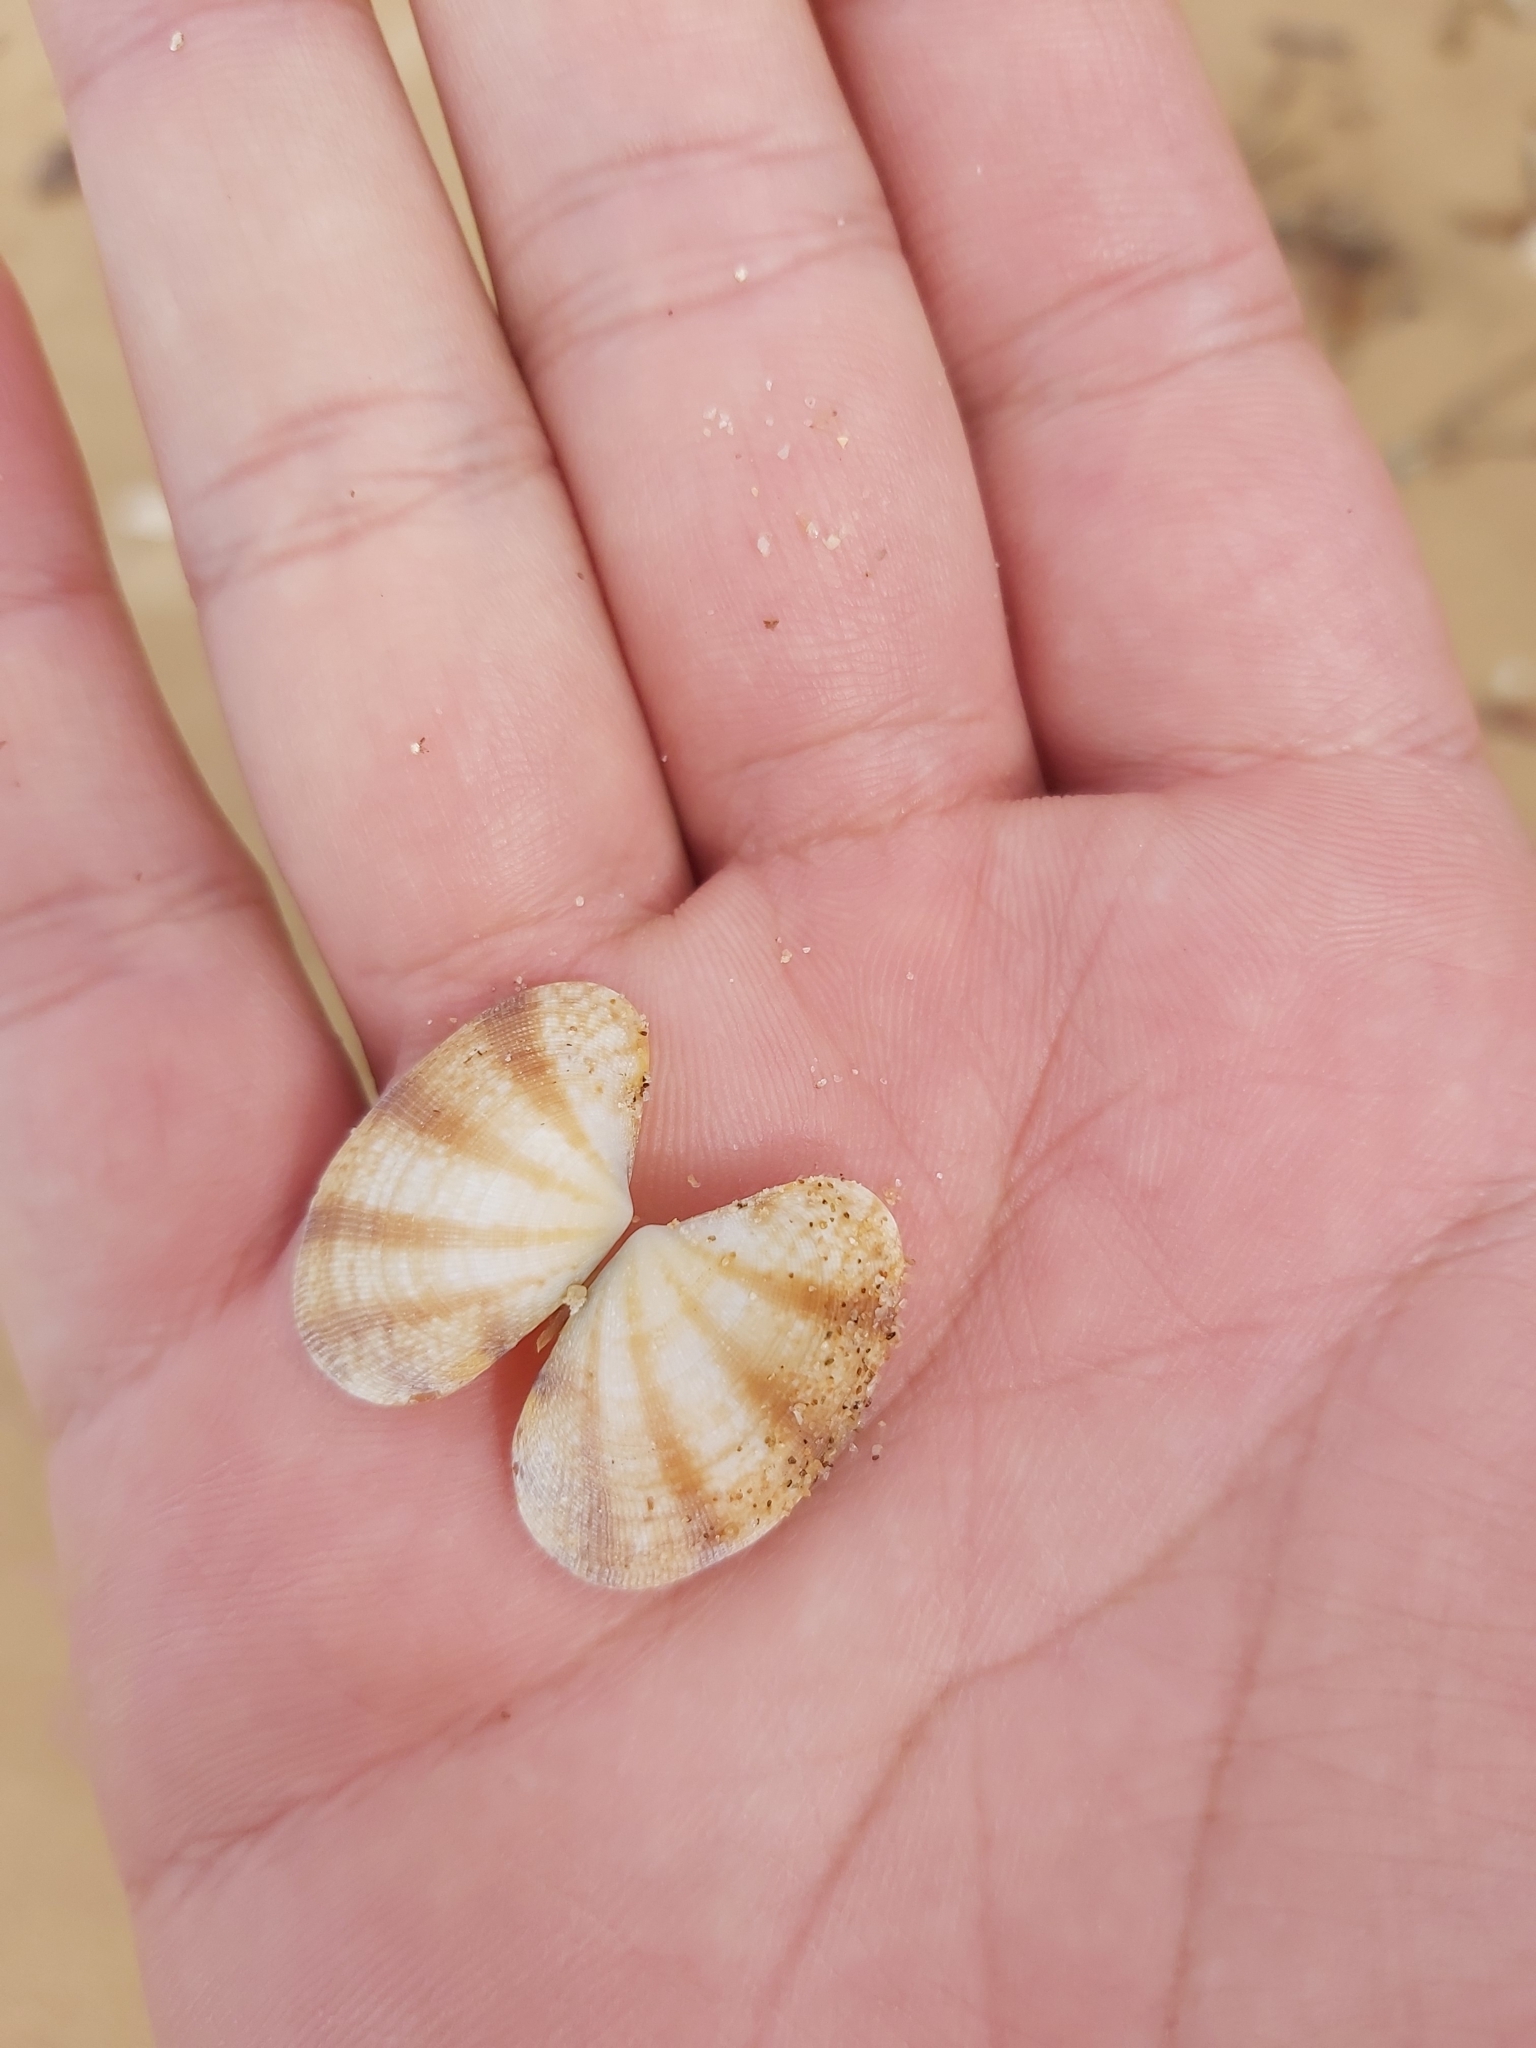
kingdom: Animalia
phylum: Mollusca
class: Bivalvia
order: Venerida
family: Veneridae
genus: Venerupis
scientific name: Venerupis aspera
